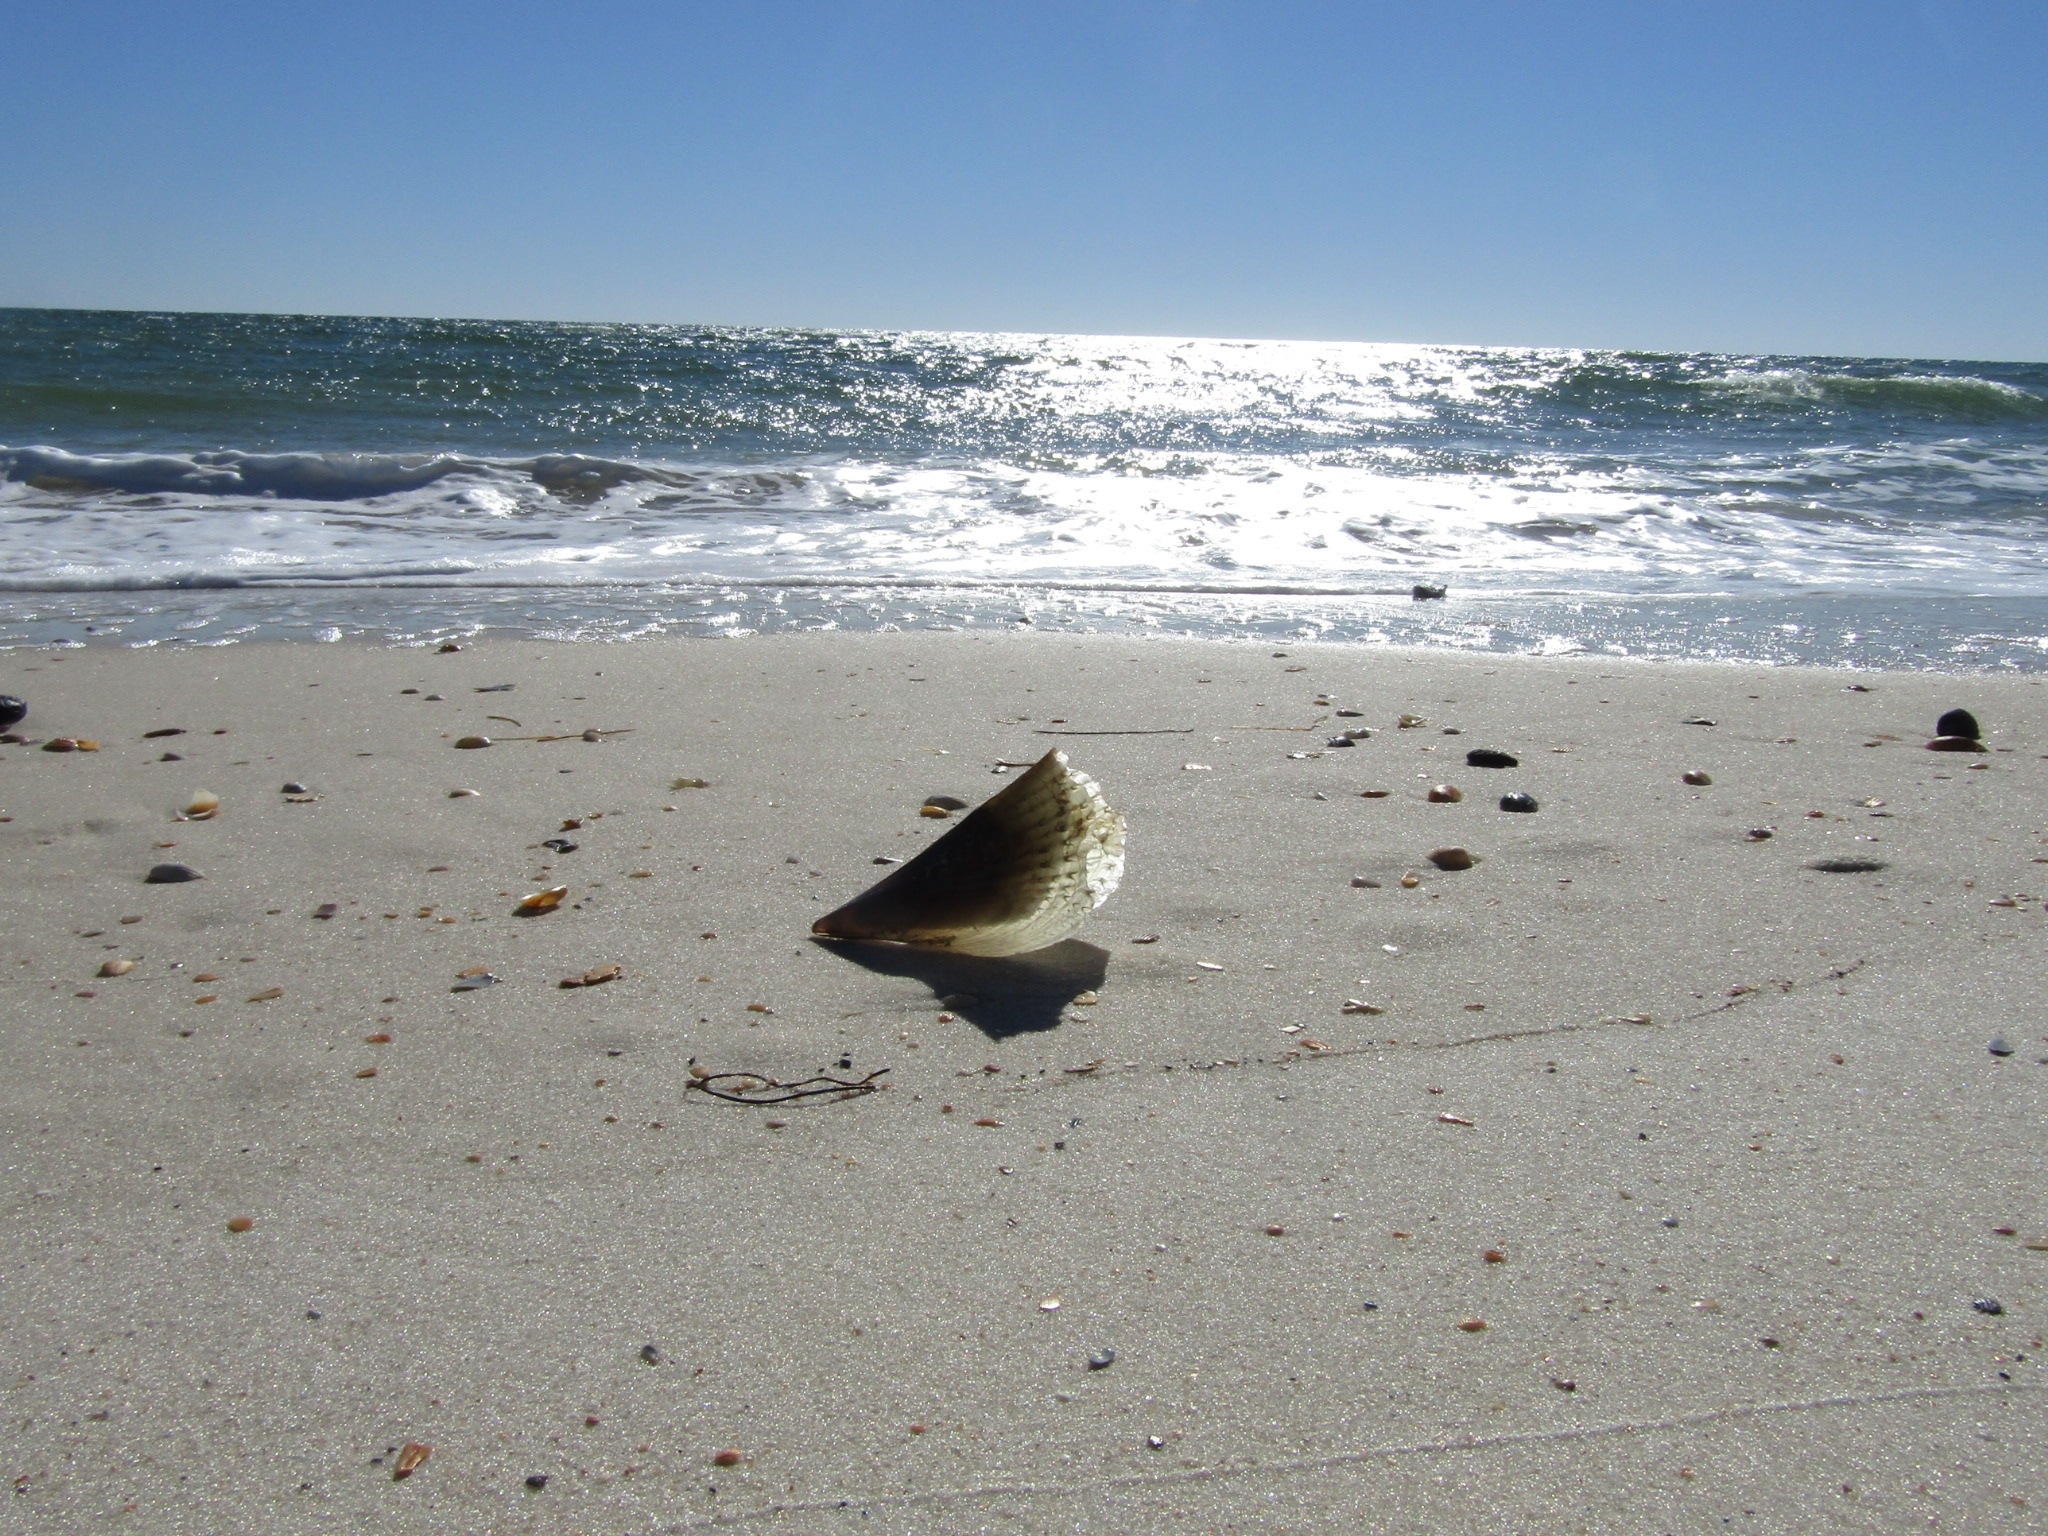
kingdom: Animalia
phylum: Mollusca
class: Bivalvia
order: Ostreida
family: Pinnidae
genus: Atrina
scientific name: Atrina rigida
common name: Stiff penshell
